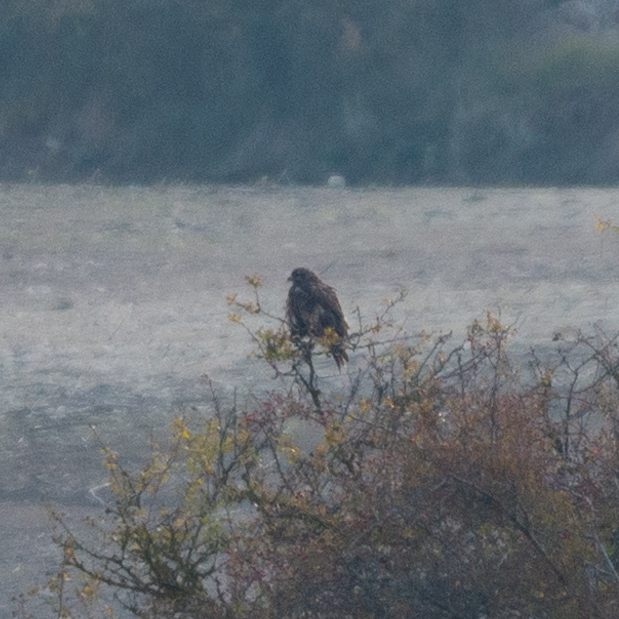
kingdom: Animalia
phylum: Chordata
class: Aves
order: Accipitriformes
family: Accipitridae
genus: Buteo
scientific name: Buteo buteo
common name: Common buzzard
